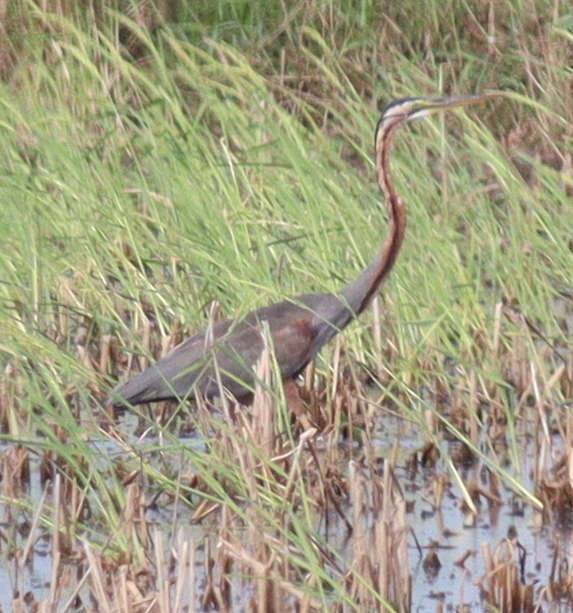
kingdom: Animalia
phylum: Chordata
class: Aves
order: Pelecaniformes
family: Ardeidae
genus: Ardea
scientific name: Ardea purpurea
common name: Purple heron
